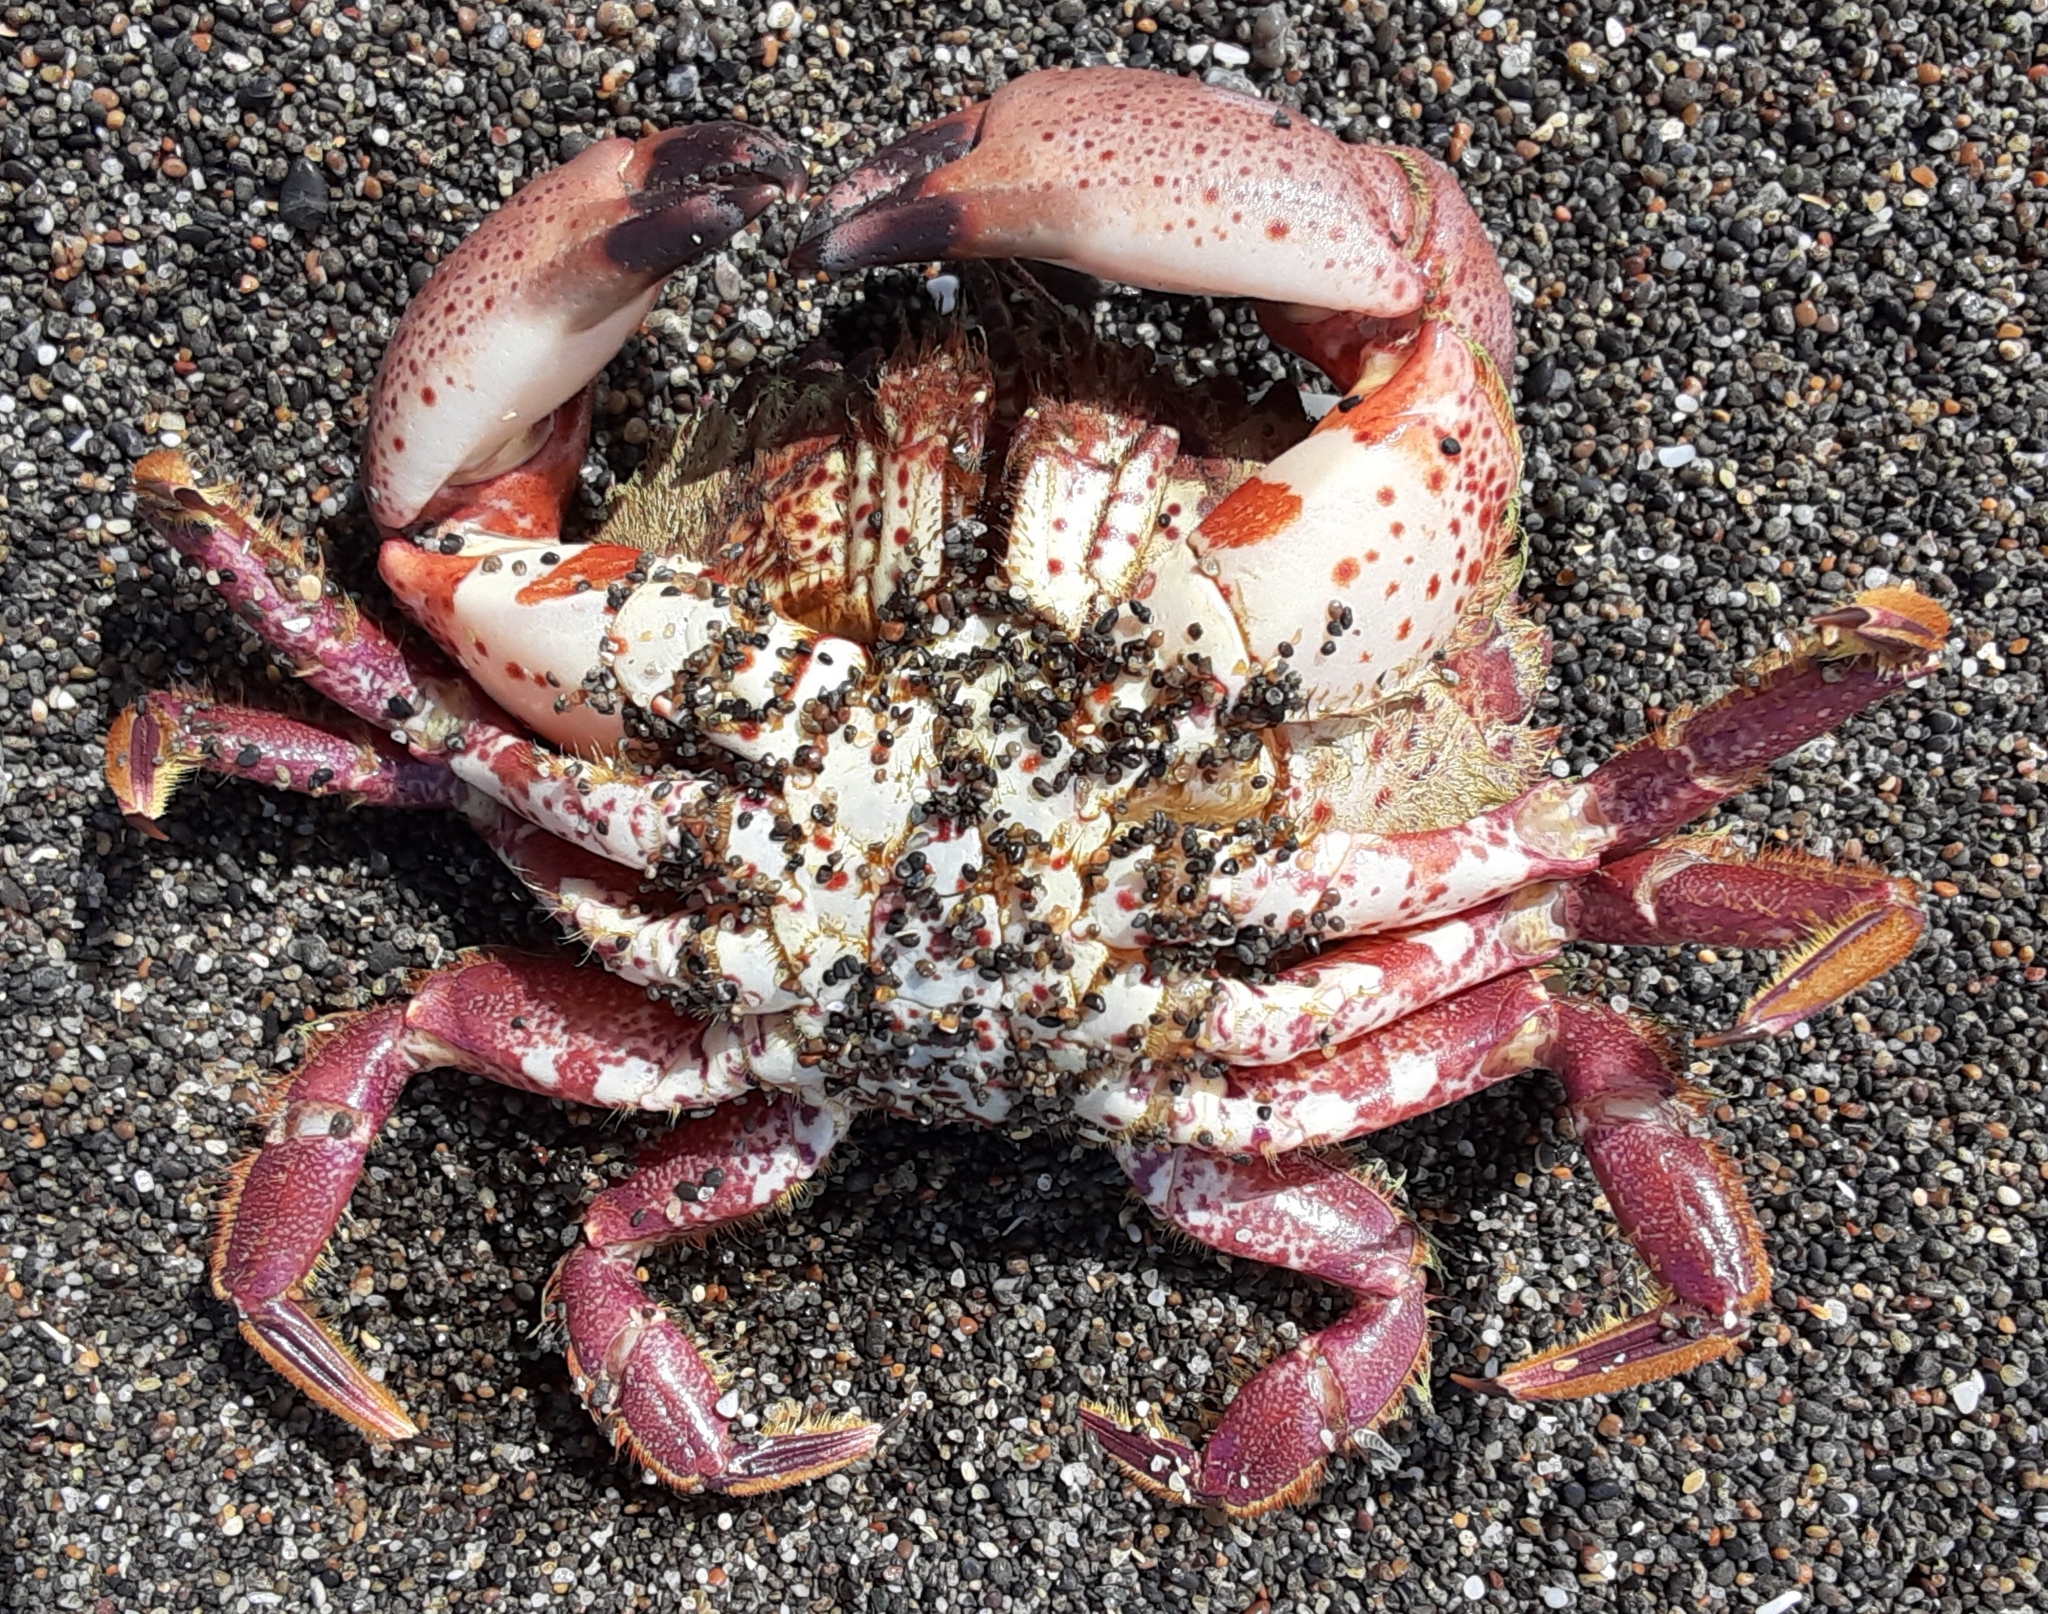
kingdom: Animalia
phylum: Arthropoda
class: Malacostraca
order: Decapoda
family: Cancridae
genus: Romaleon
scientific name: Romaleon antennarium
